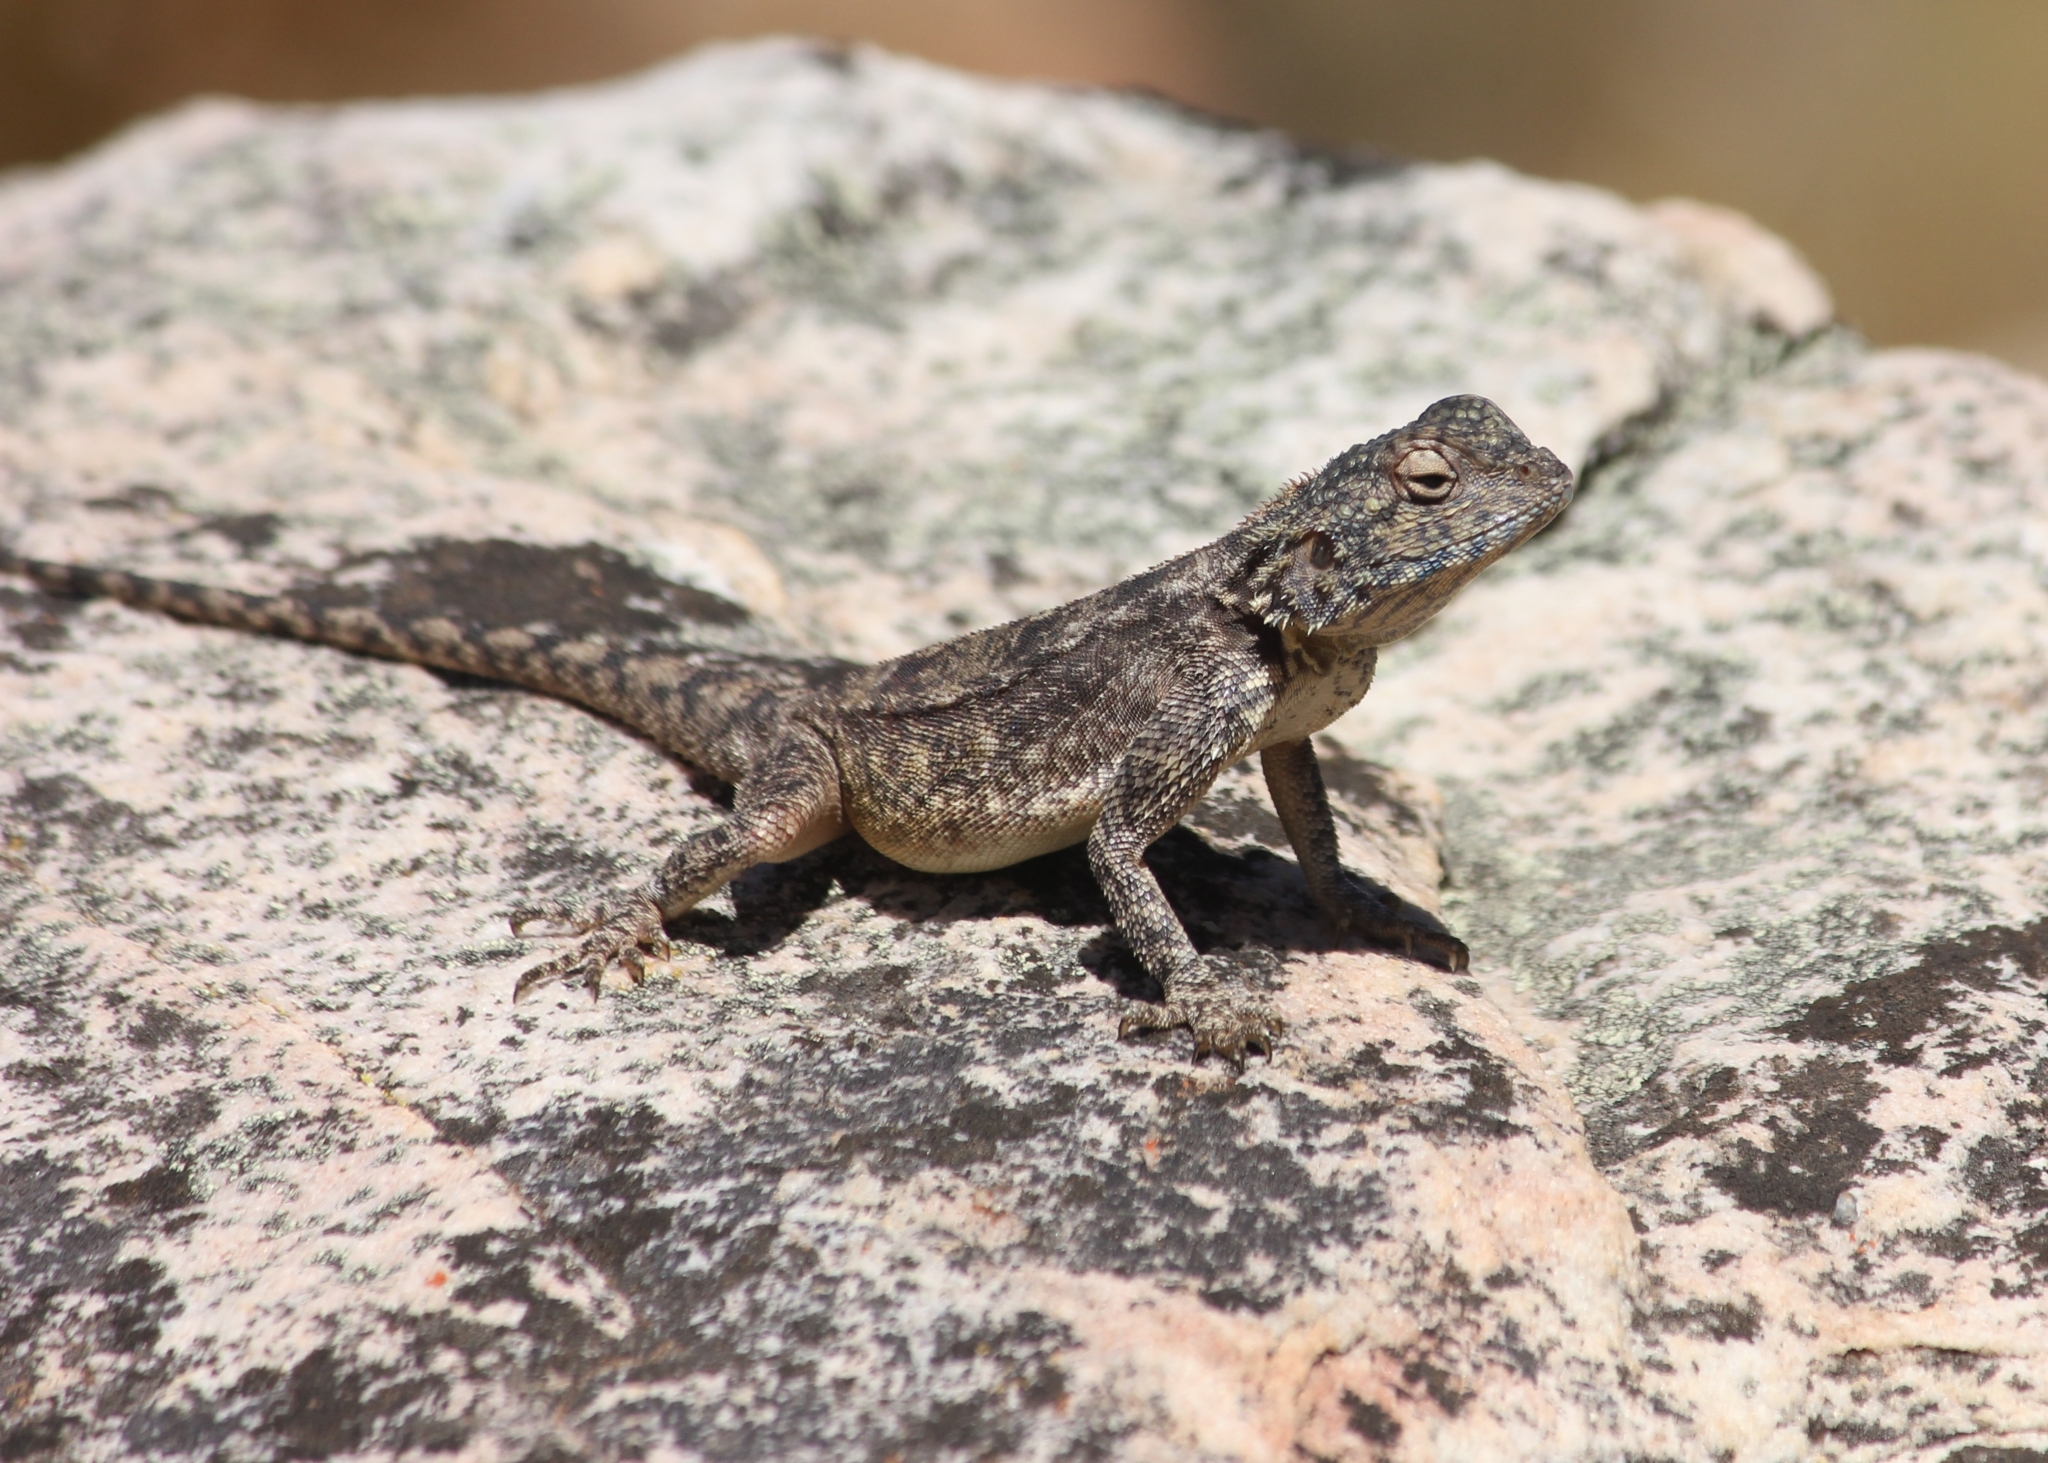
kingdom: Animalia
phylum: Chordata
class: Squamata
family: Agamidae
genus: Agama
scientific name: Agama atra
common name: Southern african rock agama
